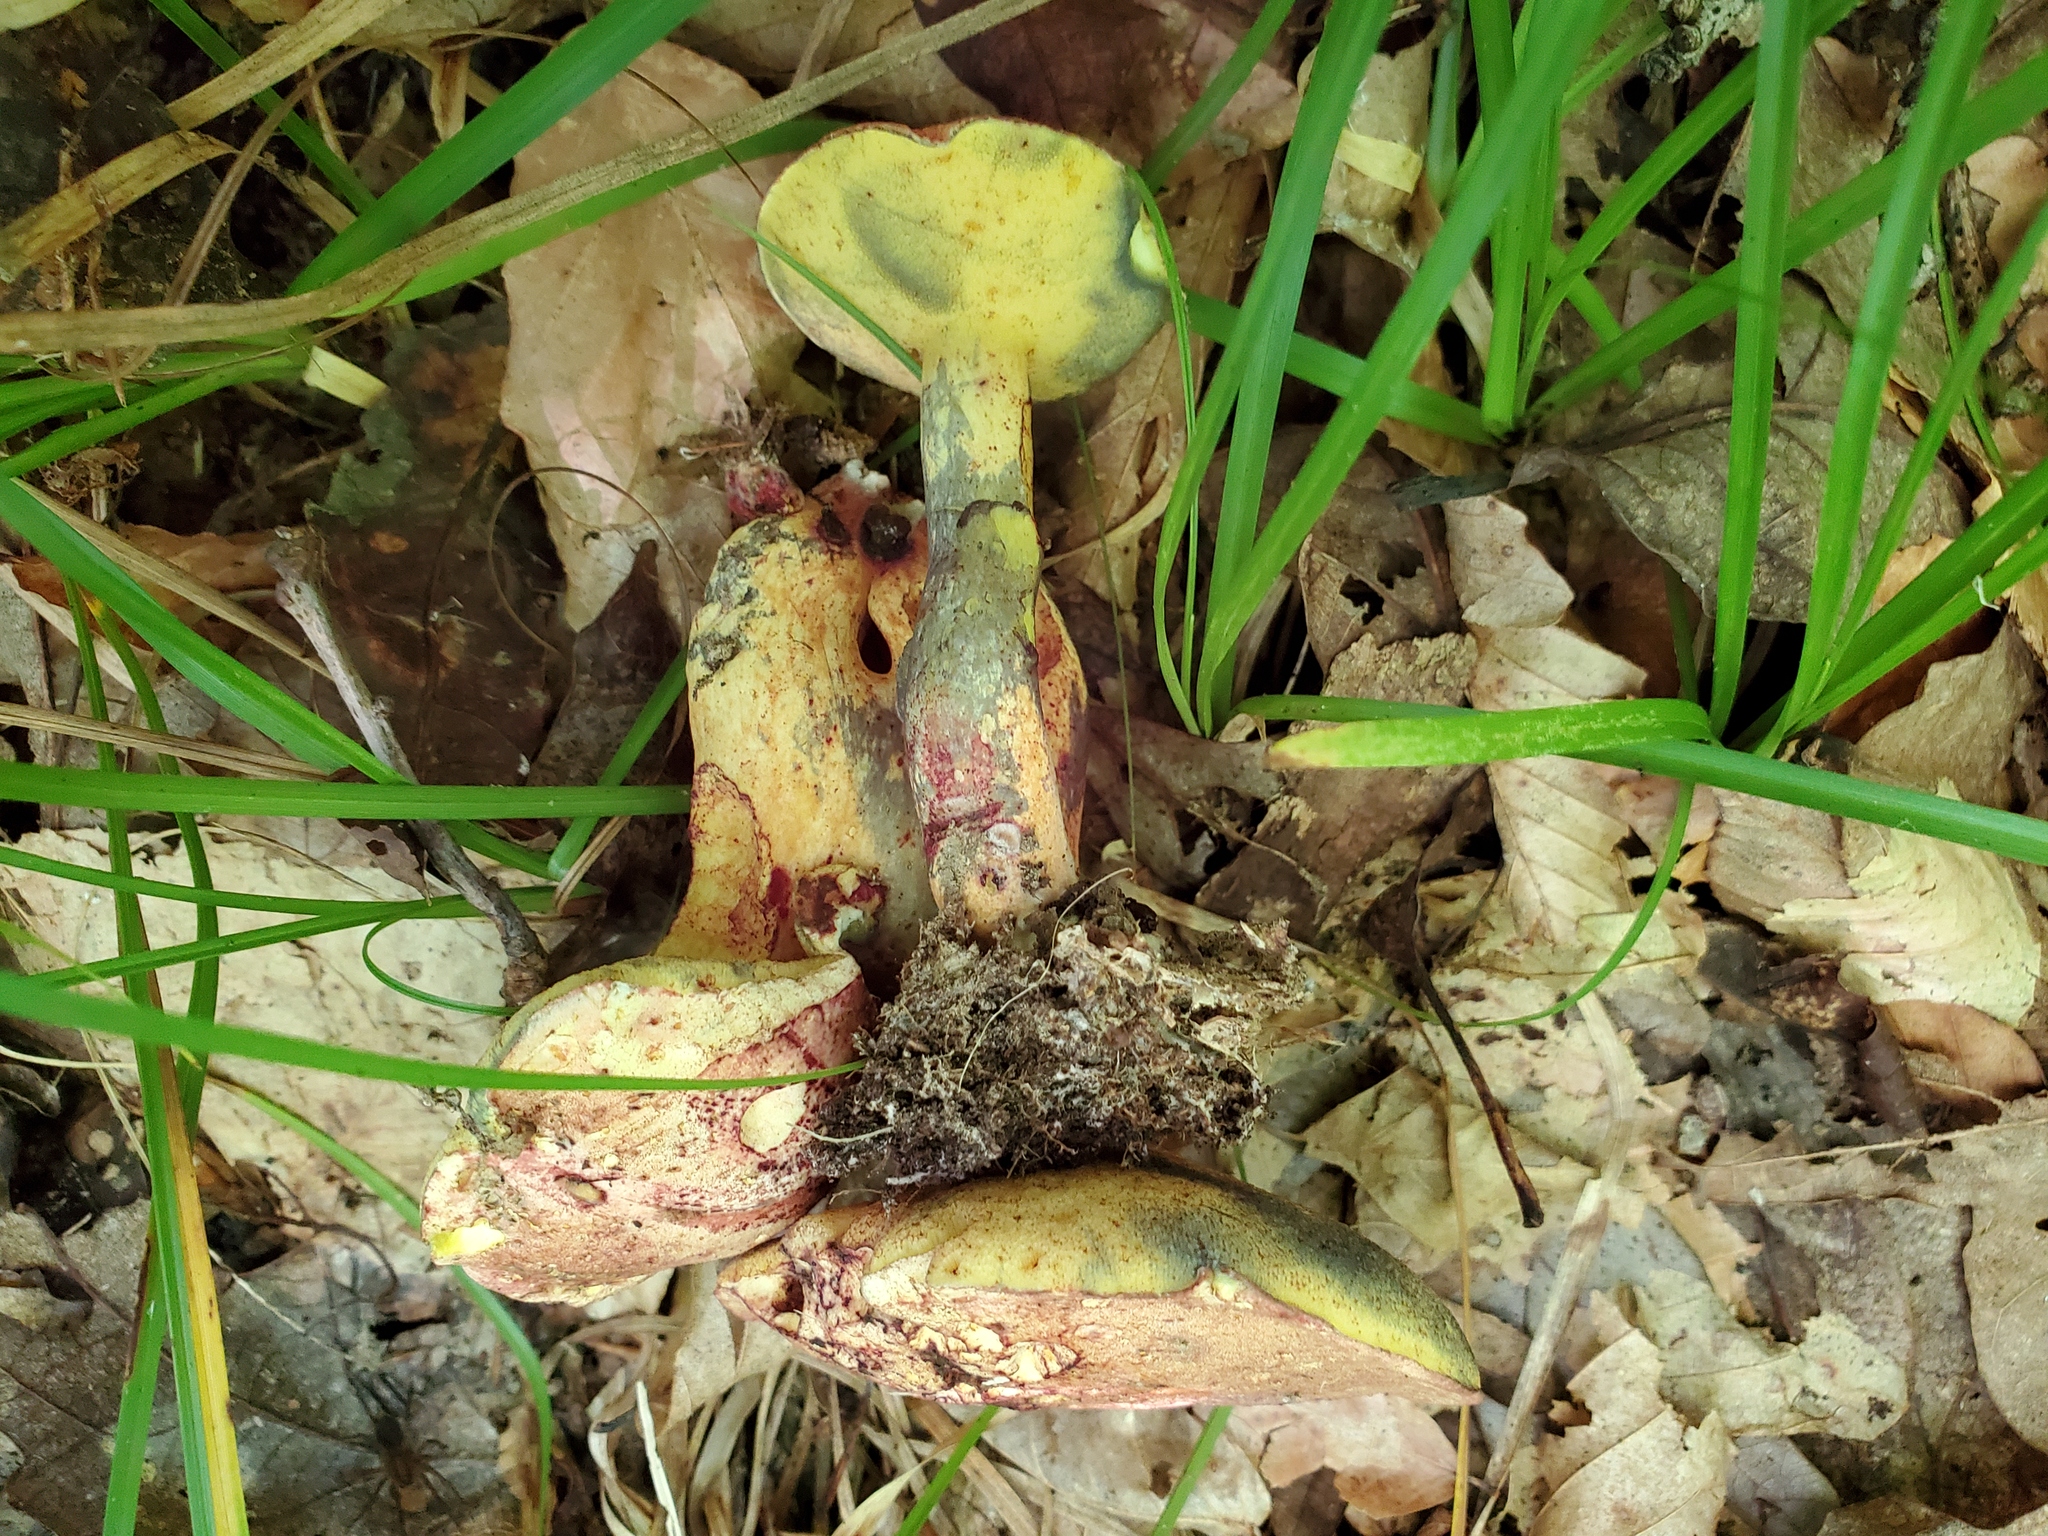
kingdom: Fungi
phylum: Basidiomycota
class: Agaricomycetes
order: Boletales
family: Boletaceae
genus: Baorangia
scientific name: Baorangia bicolor
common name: Two-colored bolete
